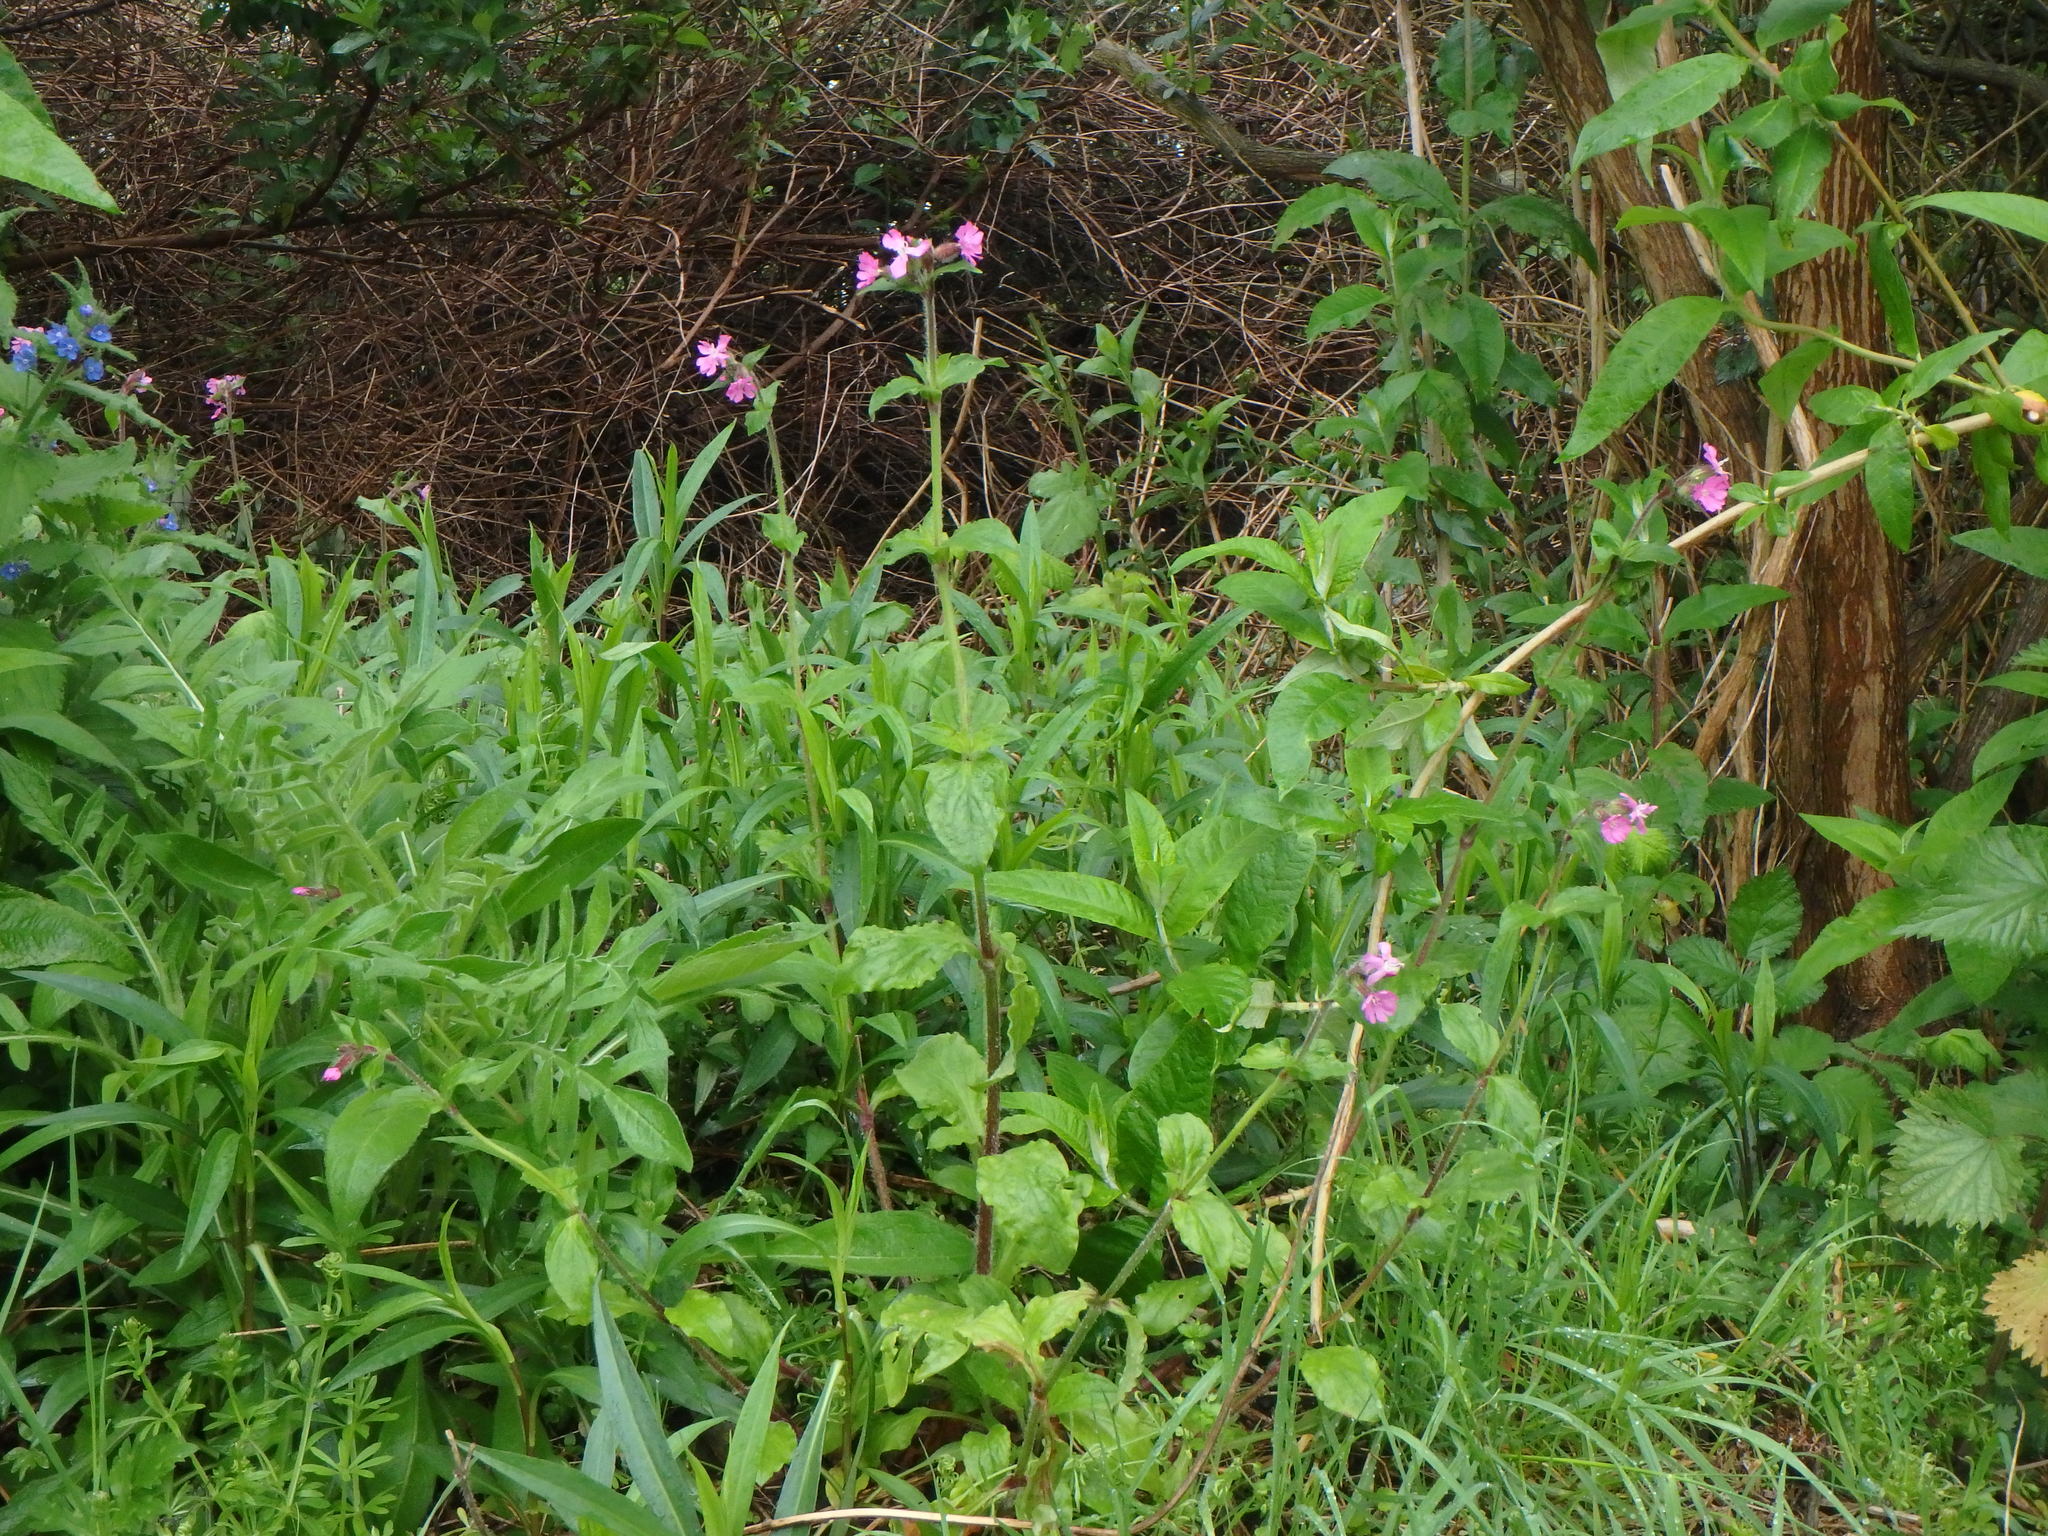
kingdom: Plantae
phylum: Tracheophyta
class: Magnoliopsida
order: Caryophyllales
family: Caryophyllaceae
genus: Silene
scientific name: Silene dioica
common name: Red campion
